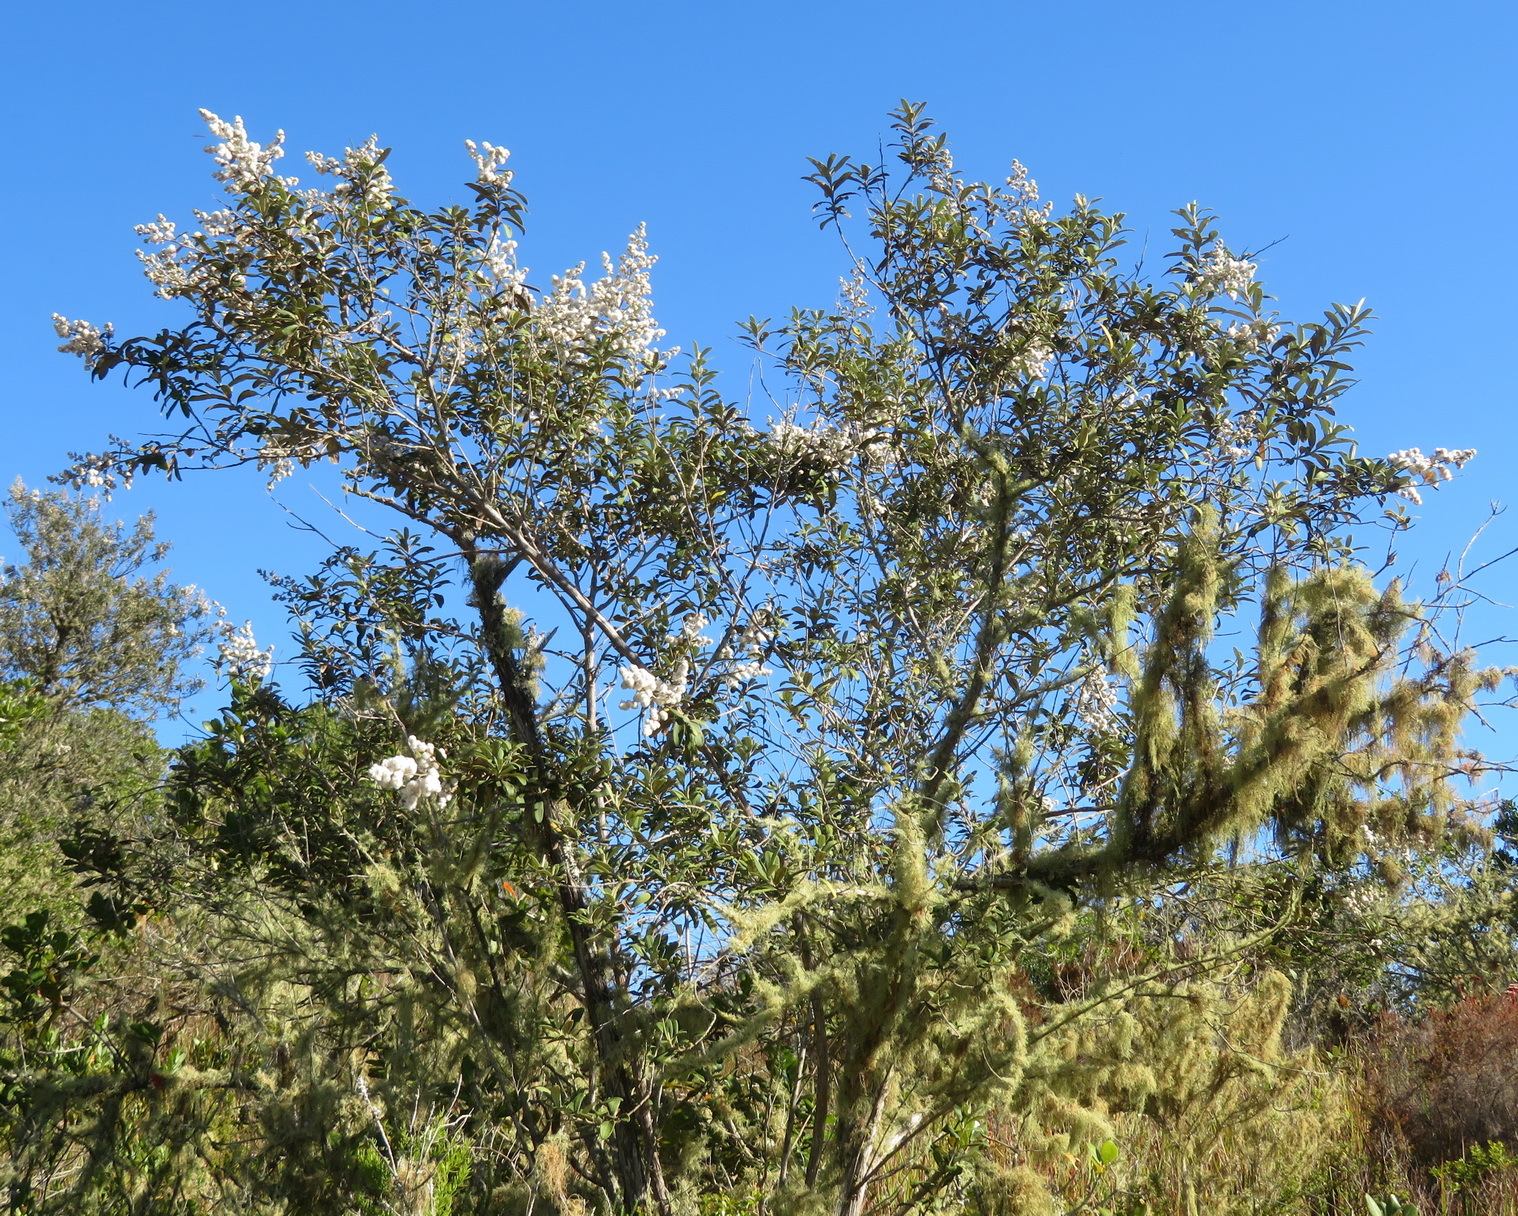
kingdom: Plantae
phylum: Tracheophyta
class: Magnoliopsida
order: Asterales
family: Asteraceae
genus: Tarchonanthus
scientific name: Tarchonanthus littoralis
